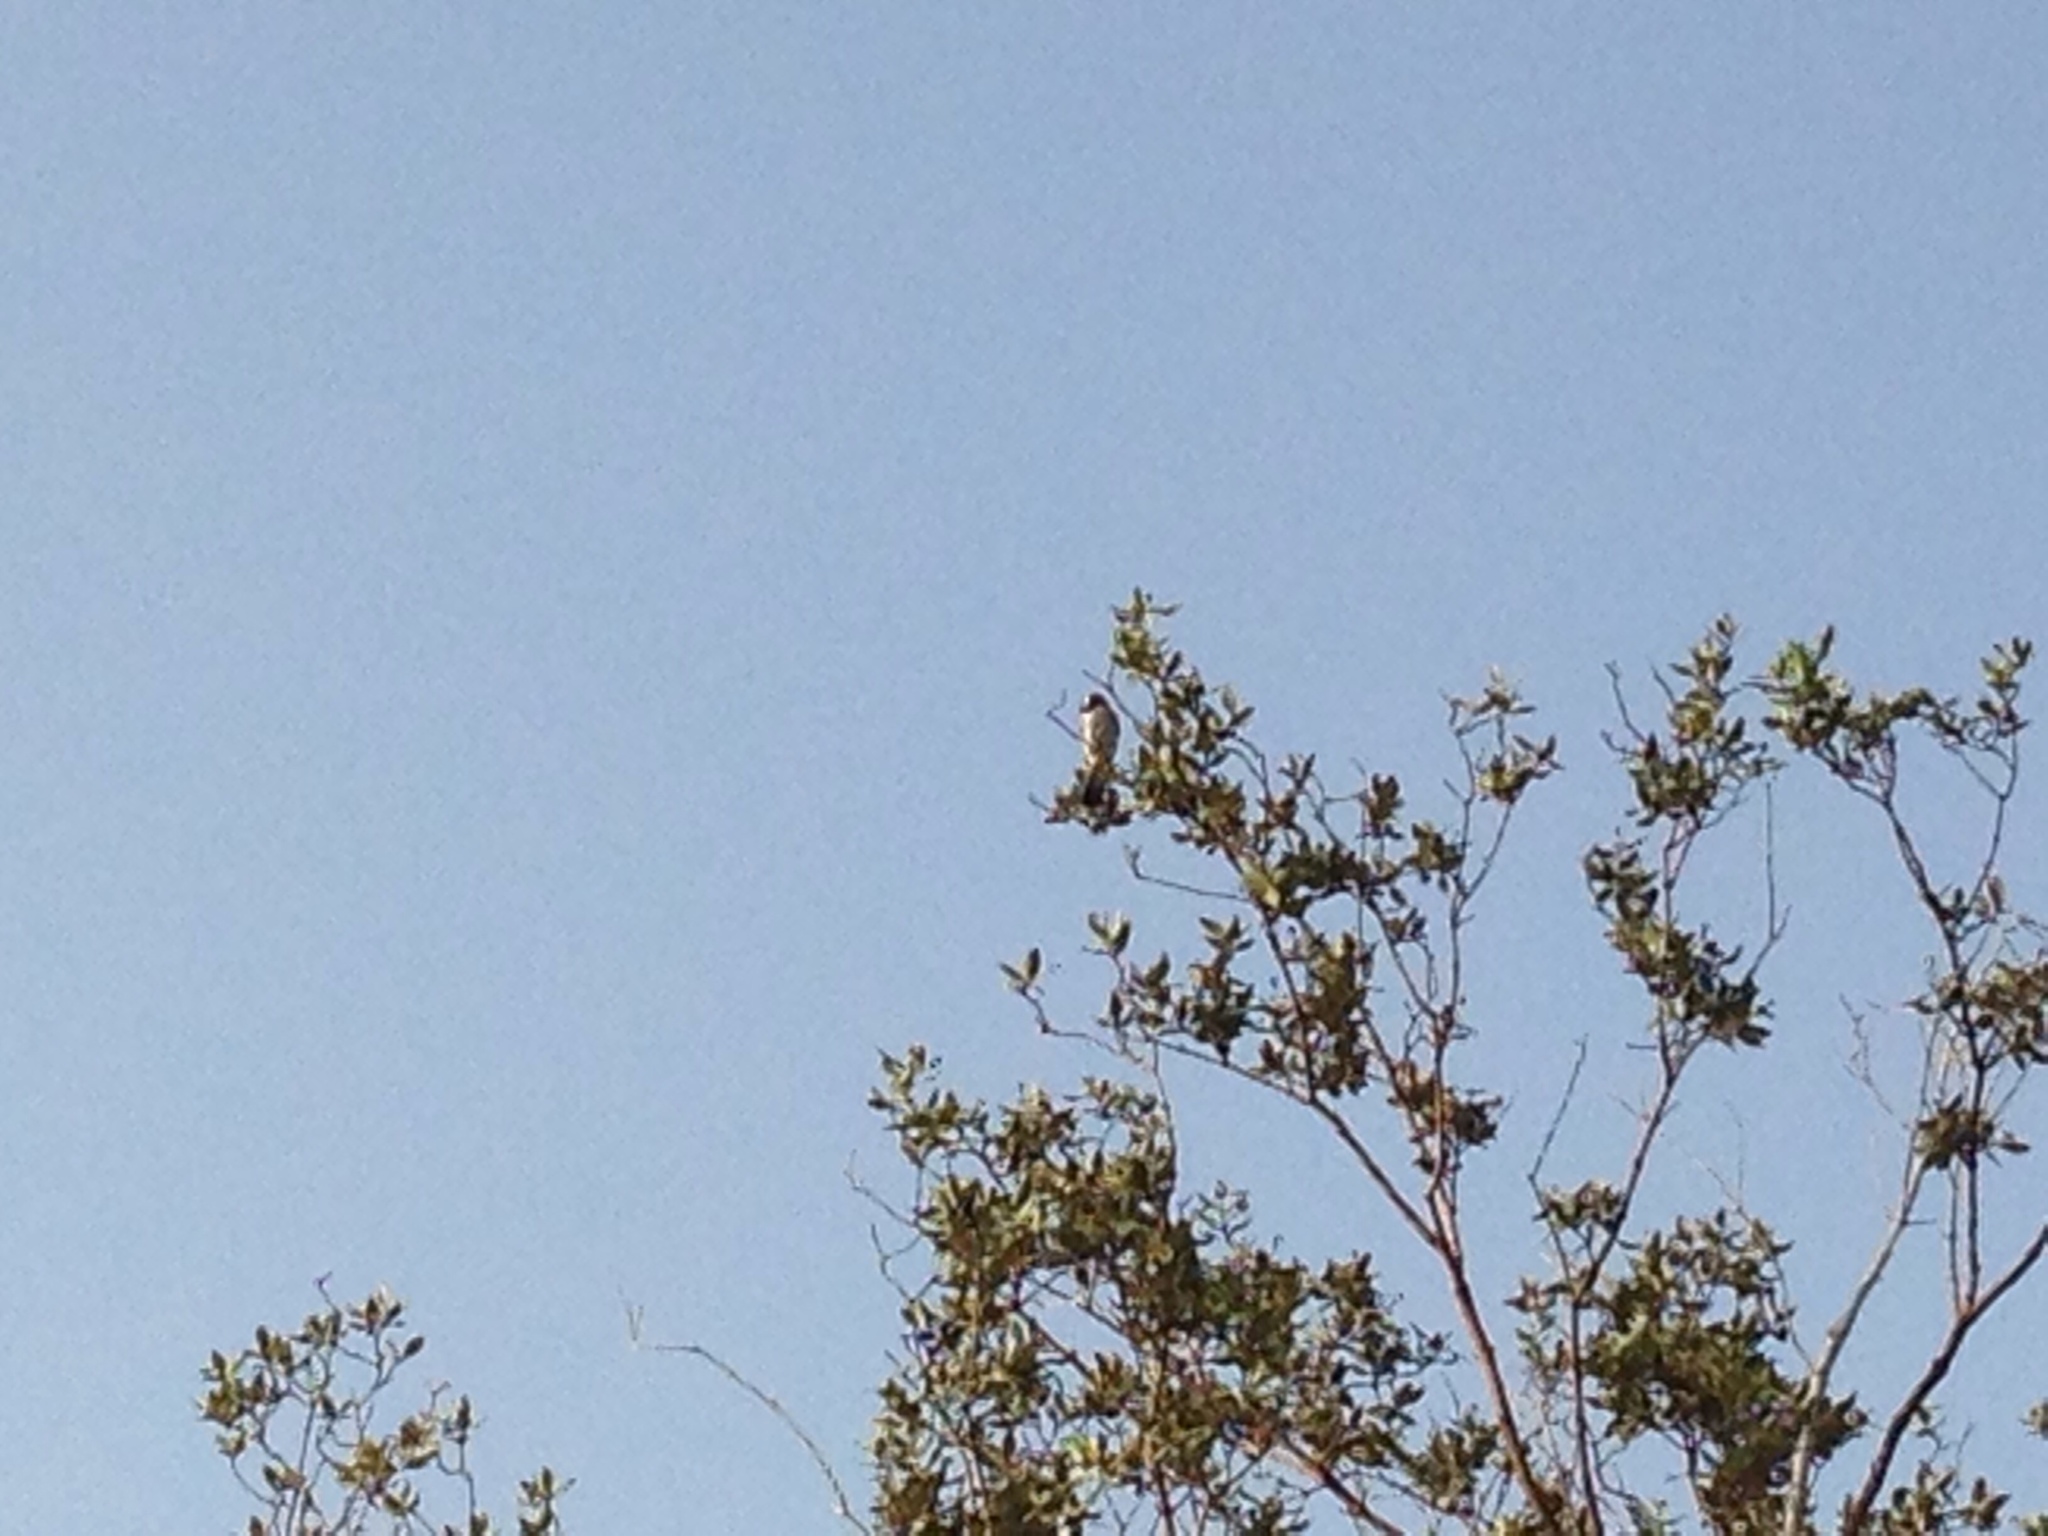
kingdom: Animalia
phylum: Chordata
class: Aves
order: Passeriformes
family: Pycnonotidae
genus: Pycnonotus
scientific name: Pycnonotus leucotis
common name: White-eared bulbul
